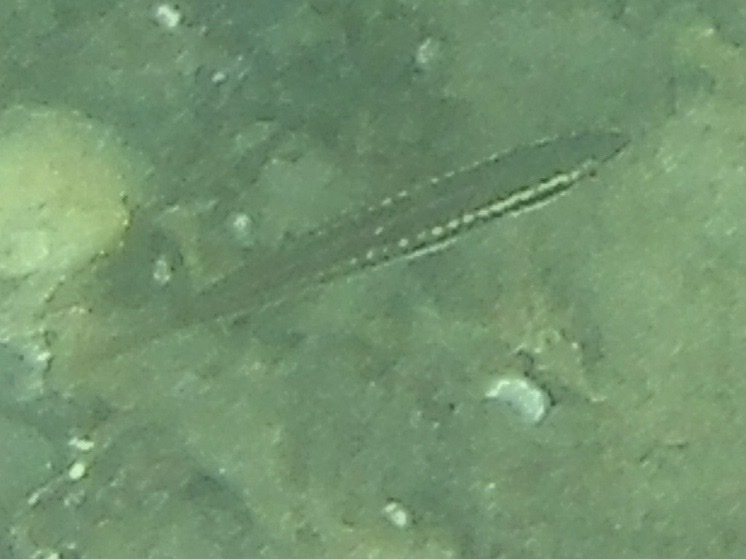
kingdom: Animalia
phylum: Chordata
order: Perciformes
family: Labridae
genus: Coris
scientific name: Coris julis
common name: Rainbow wrasse
